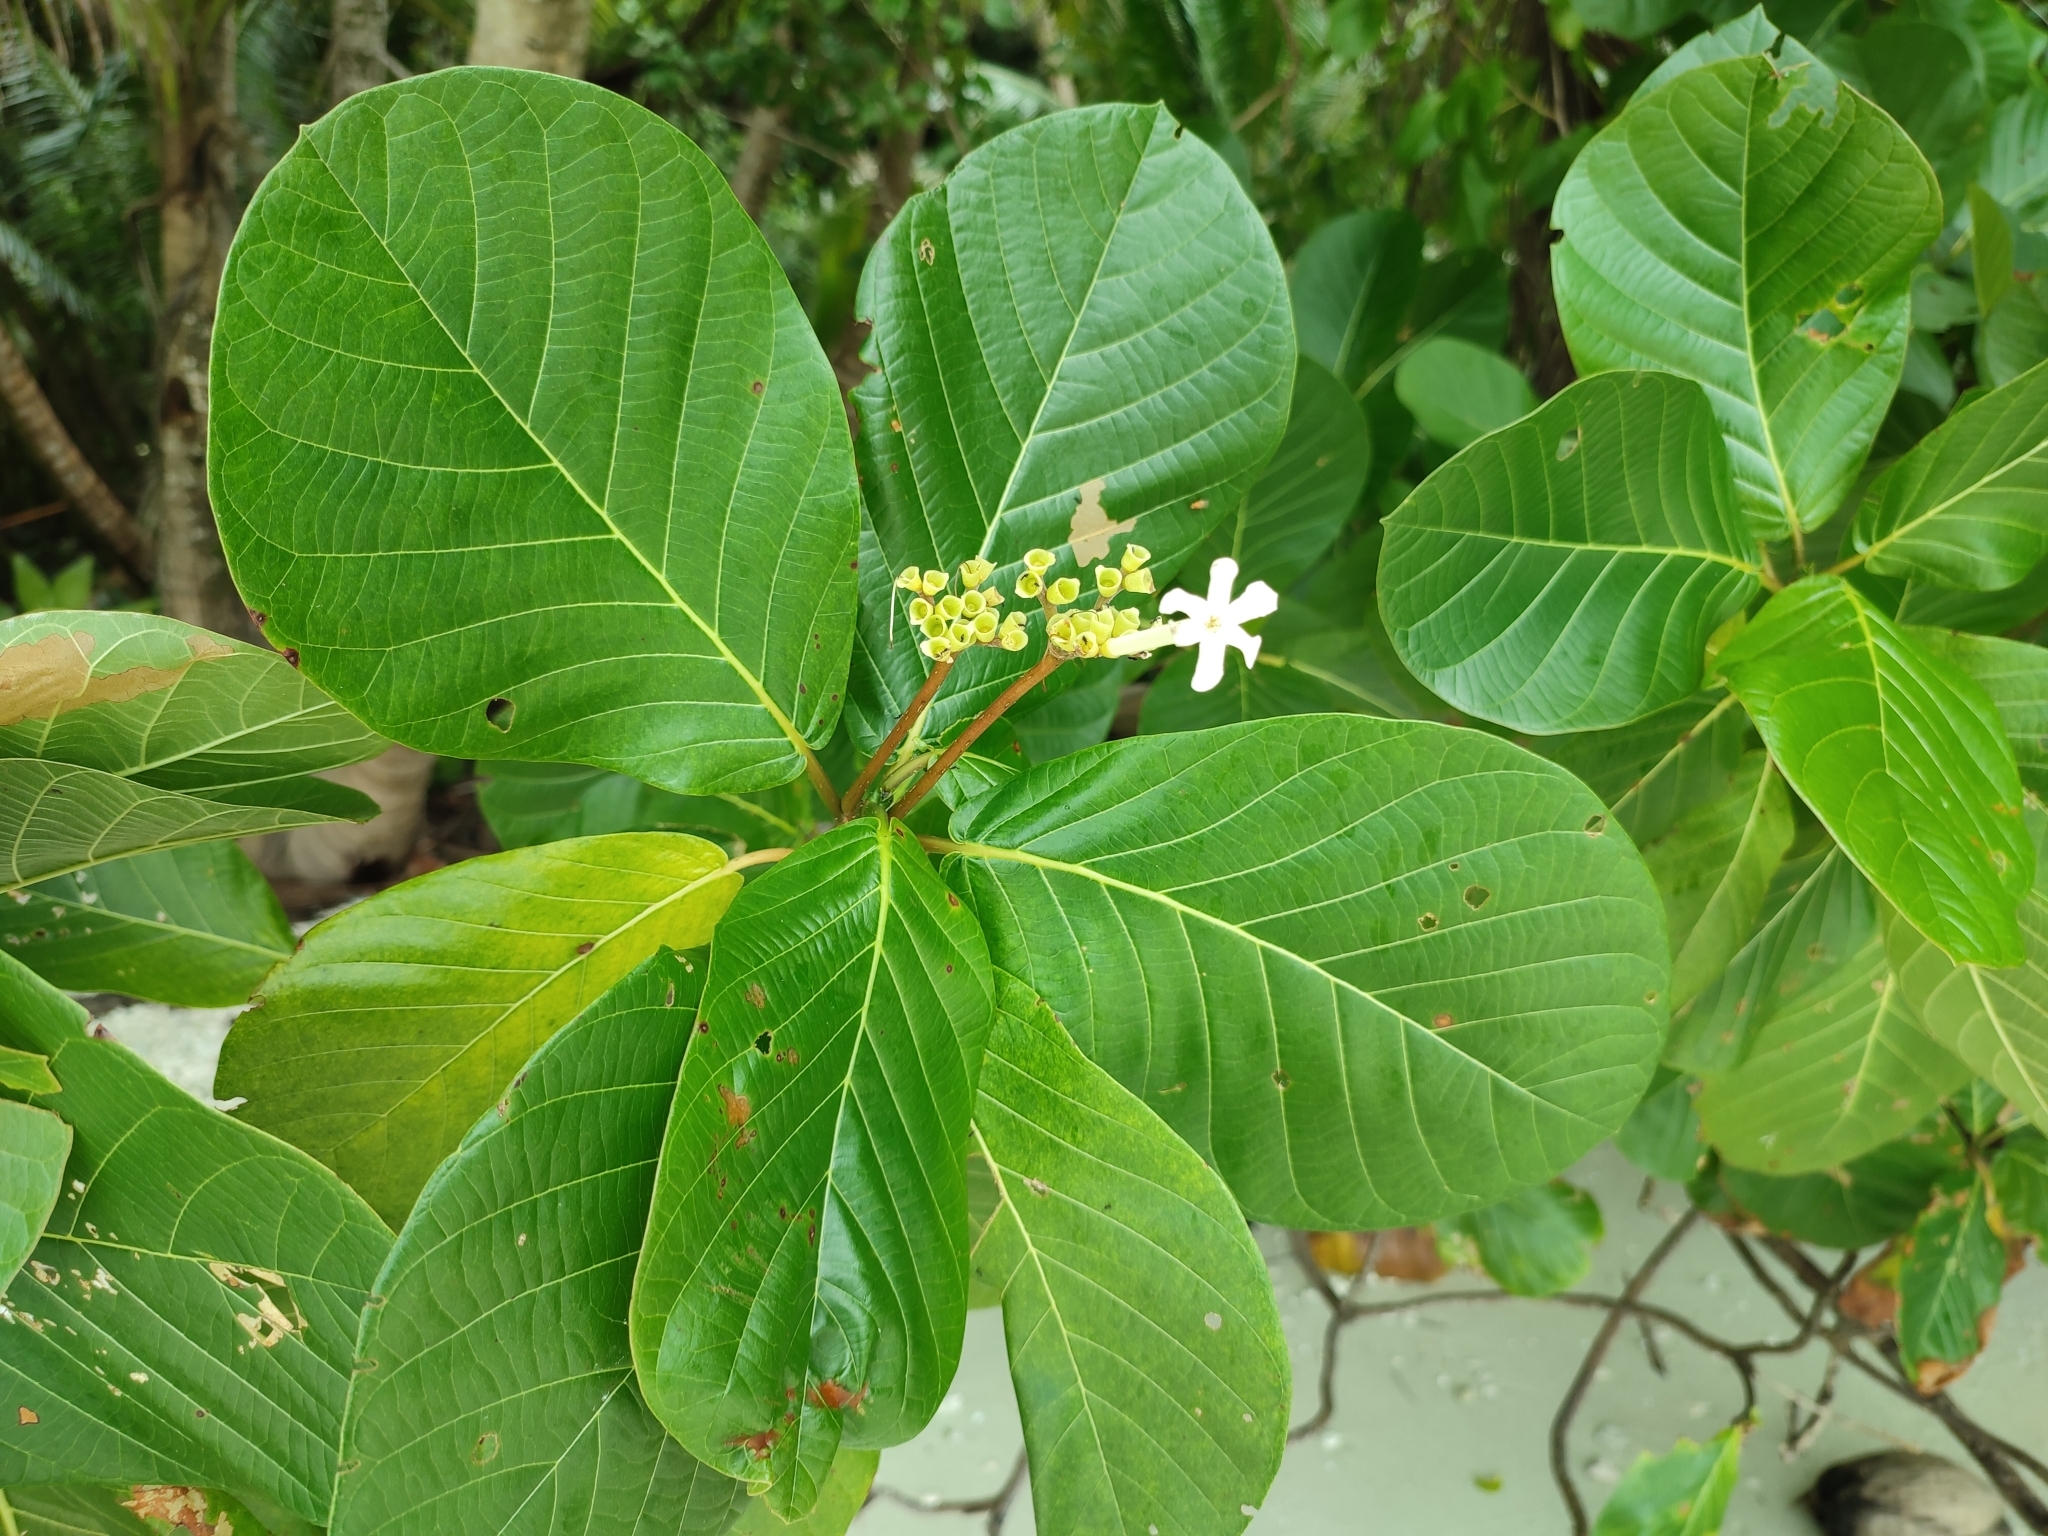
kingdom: Plantae
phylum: Tracheophyta
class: Magnoliopsida
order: Gentianales
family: Rubiaceae
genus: Guettarda
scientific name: Guettarda speciosa
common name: Sea randa
